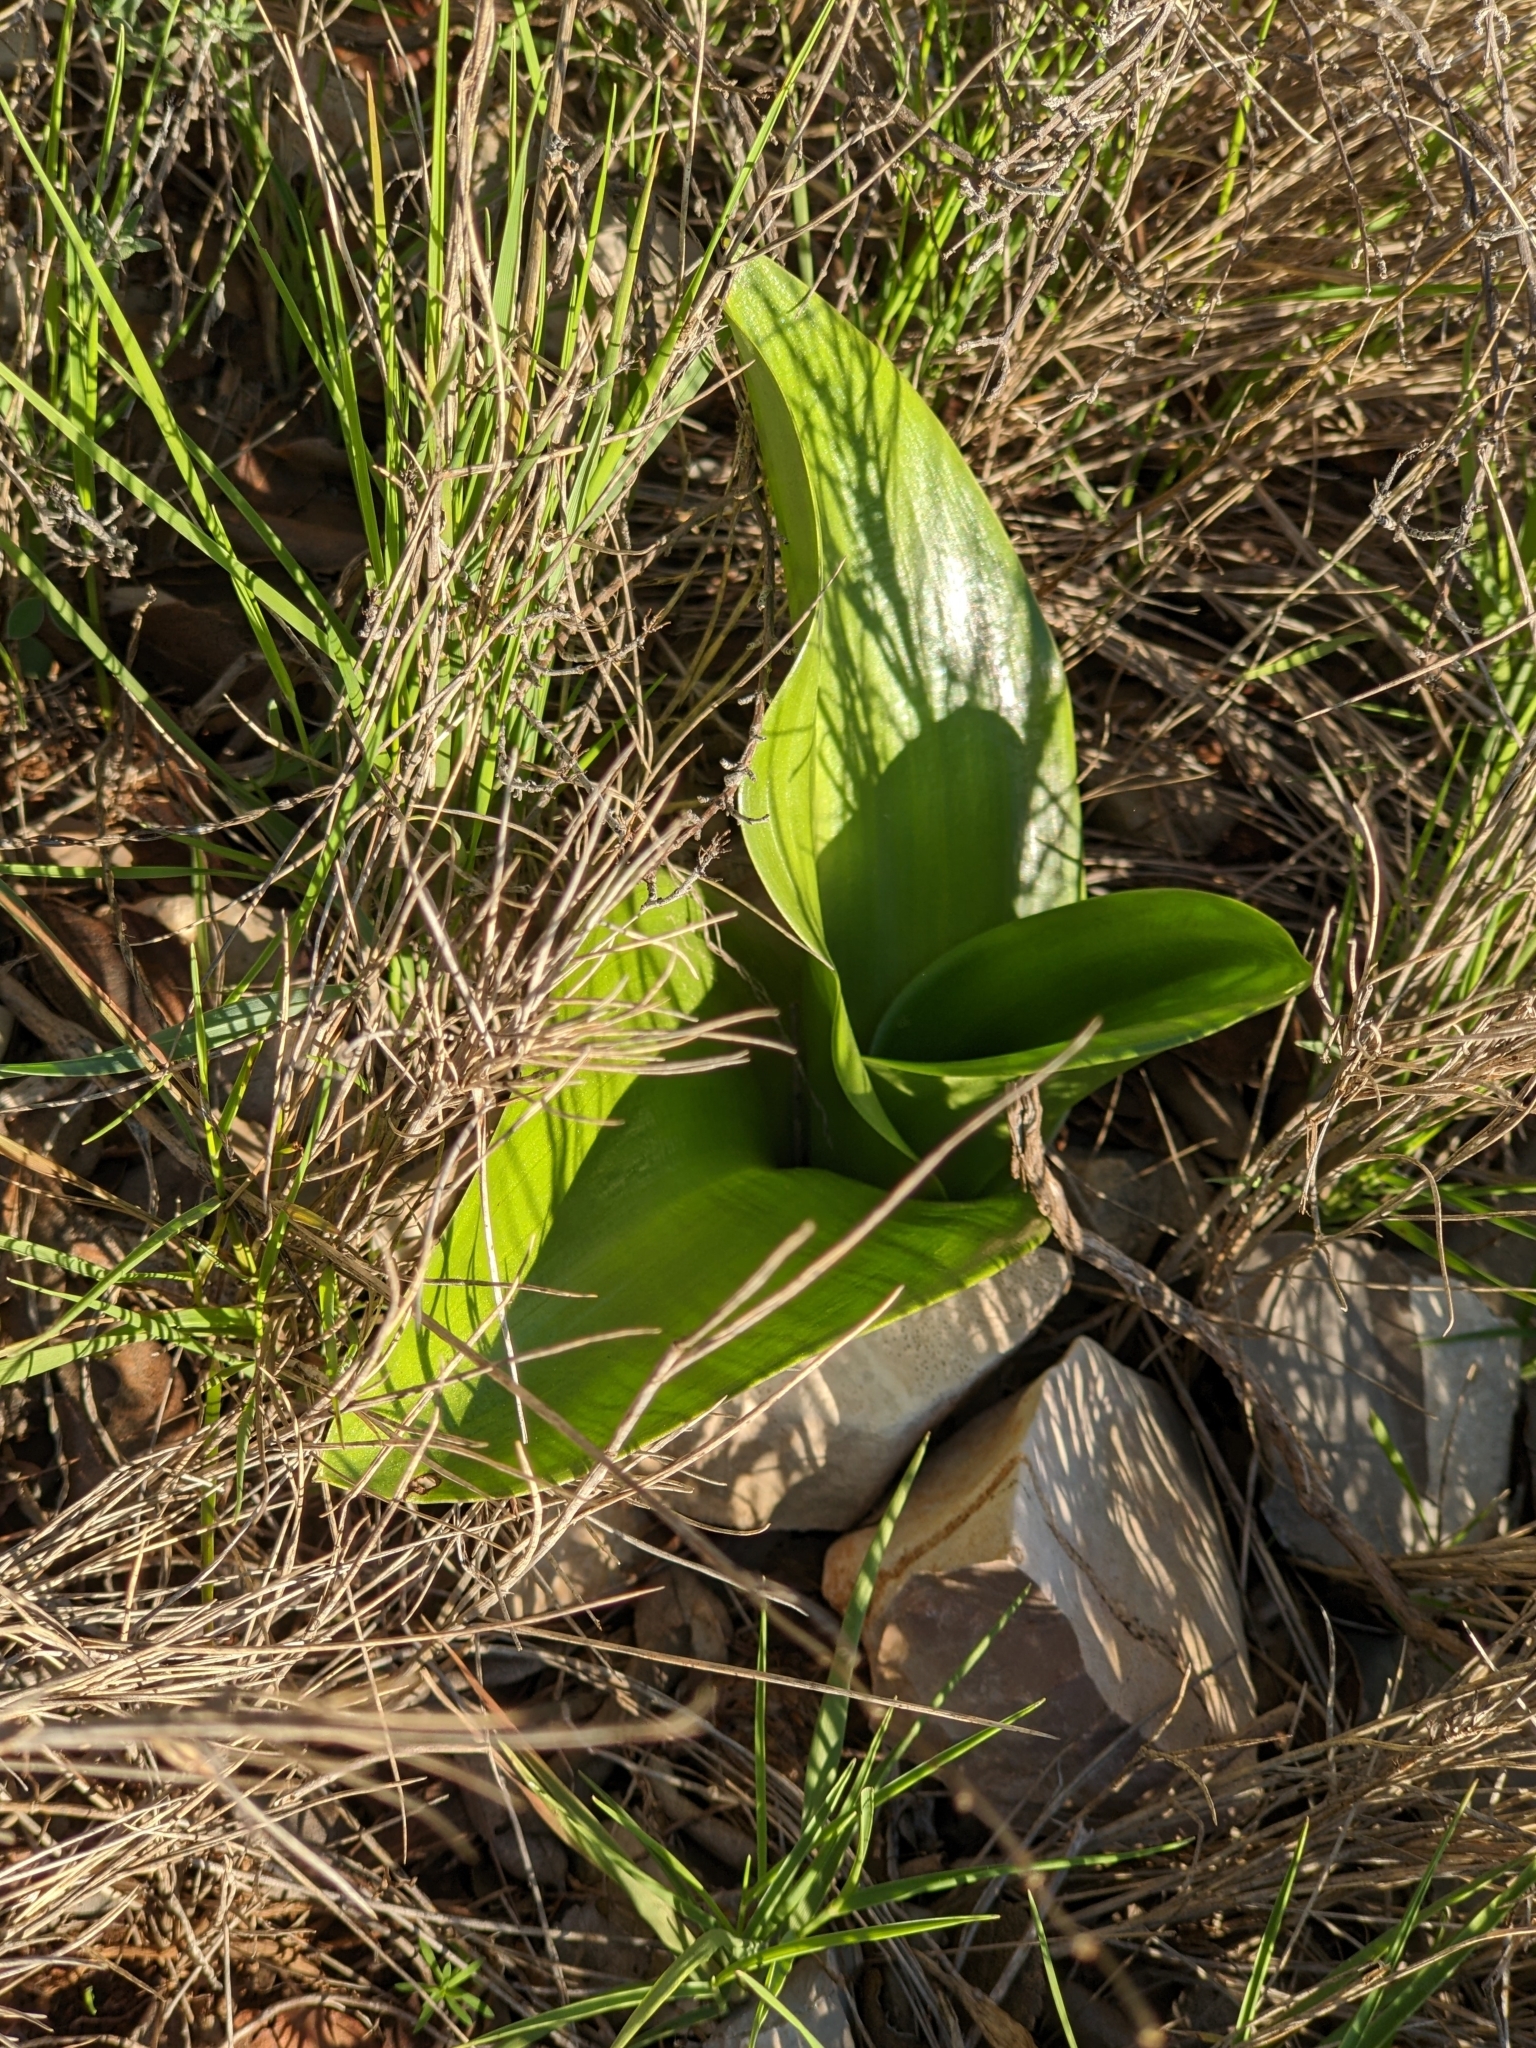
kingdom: Plantae
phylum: Tracheophyta
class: Liliopsida
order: Asparagales
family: Orchidaceae
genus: Himantoglossum
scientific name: Himantoglossum robertianum
